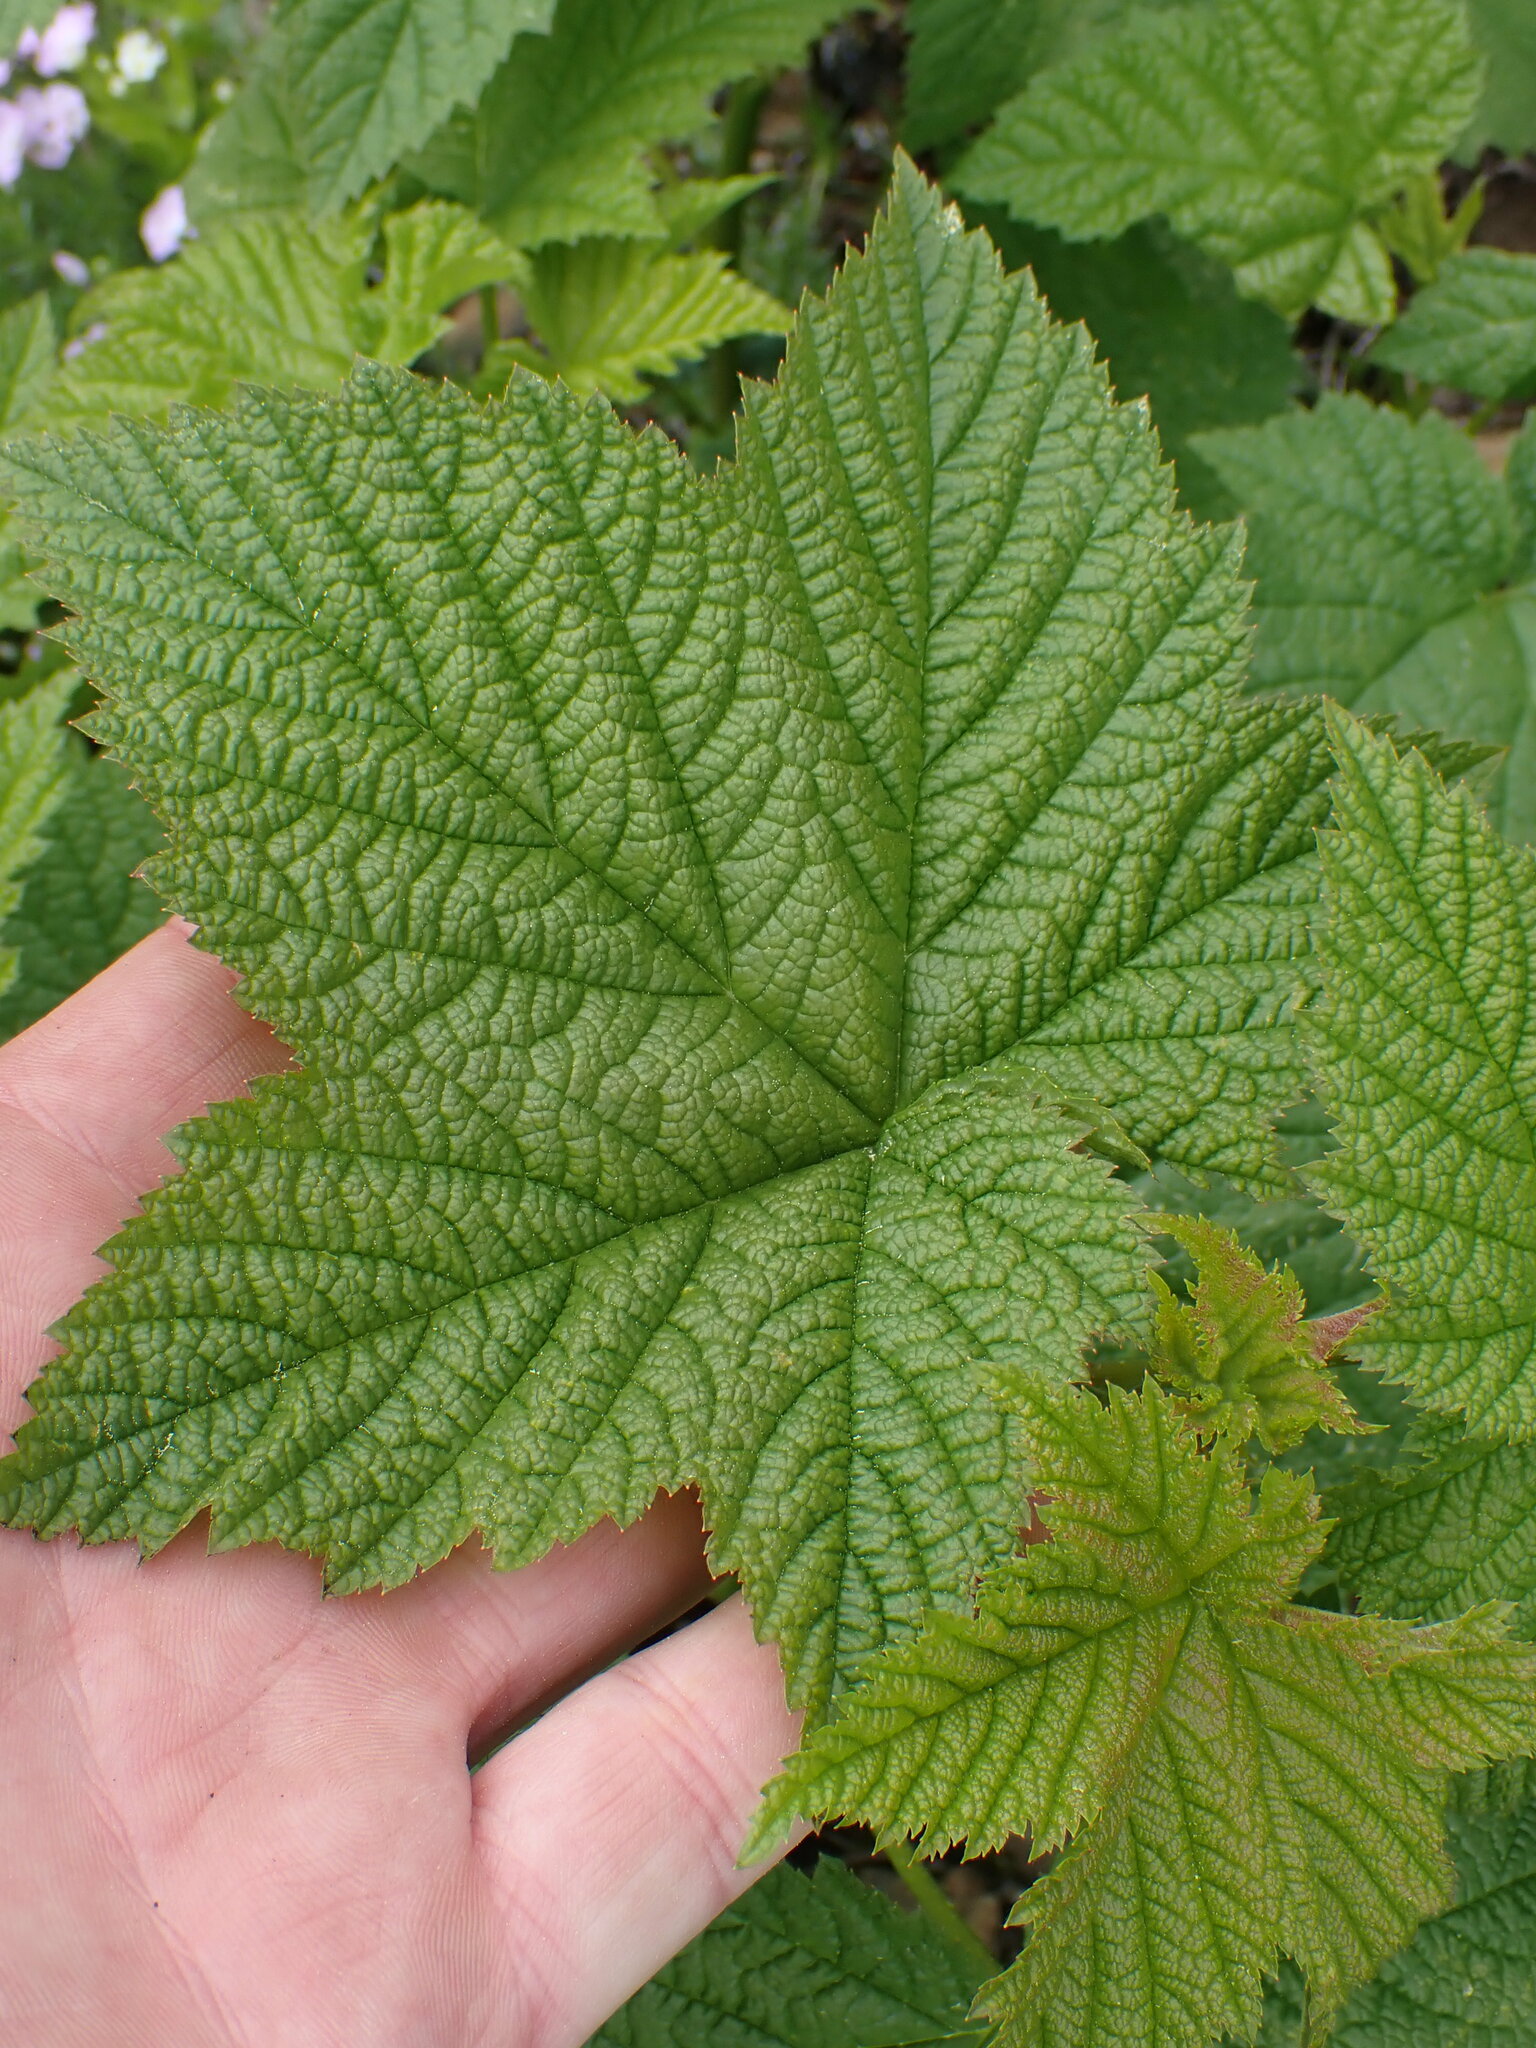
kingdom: Plantae
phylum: Tracheophyta
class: Magnoliopsida
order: Rosales
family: Rosaceae
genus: Rubus
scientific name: Rubus parviflorus
